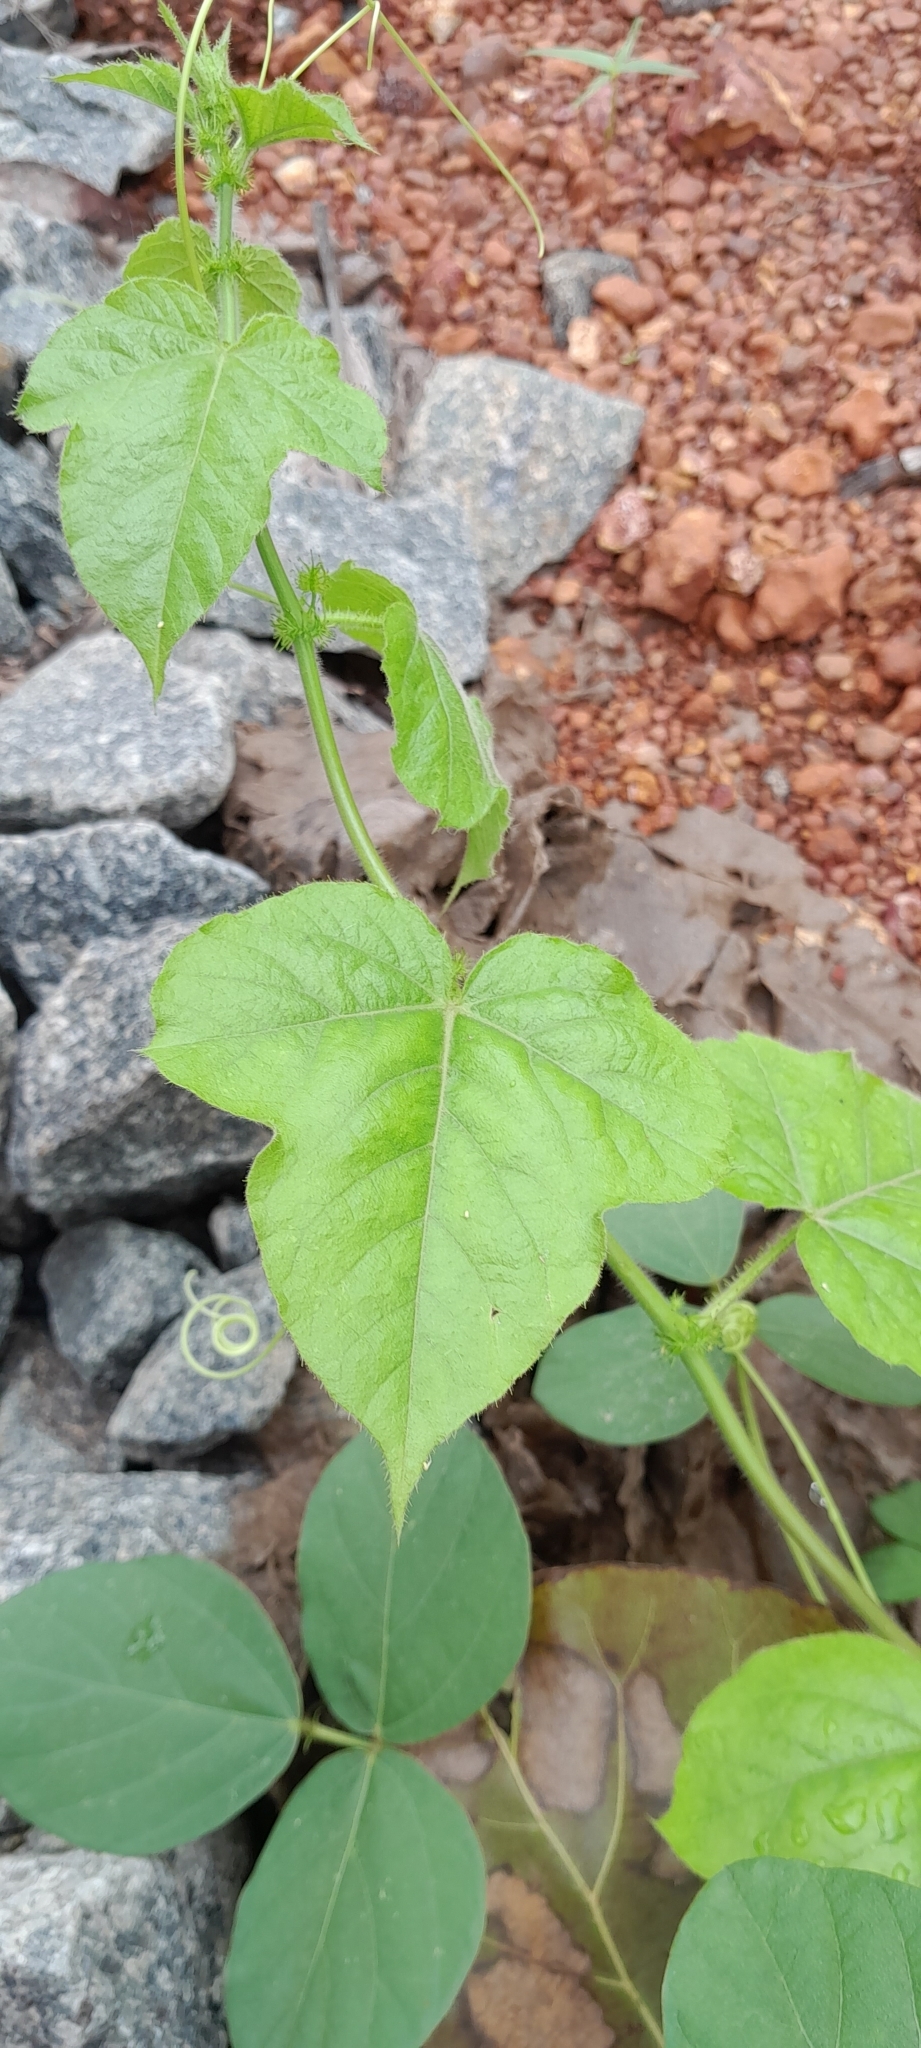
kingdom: Plantae
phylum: Tracheophyta
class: Magnoliopsida
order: Malpighiales
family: Passifloraceae
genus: Passiflora
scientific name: Passiflora vesicaria
